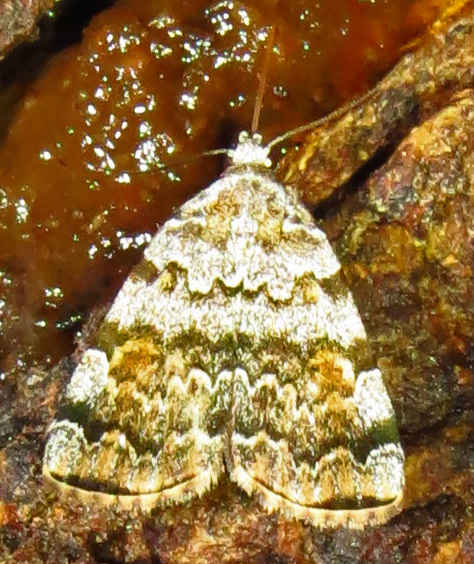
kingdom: Animalia
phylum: Arthropoda
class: Insecta
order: Lepidoptera
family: Erebidae
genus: Idia
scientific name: Idia americalis
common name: American idia moth
